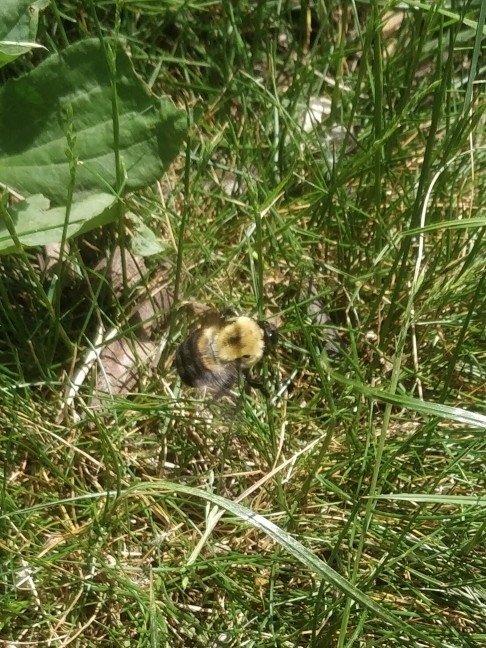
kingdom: Animalia
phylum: Arthropoda
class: Insecta
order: Hymenoptera
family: Apidae
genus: Bombus
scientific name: Bombus griseocollis
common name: Brown-belted bumble bee
